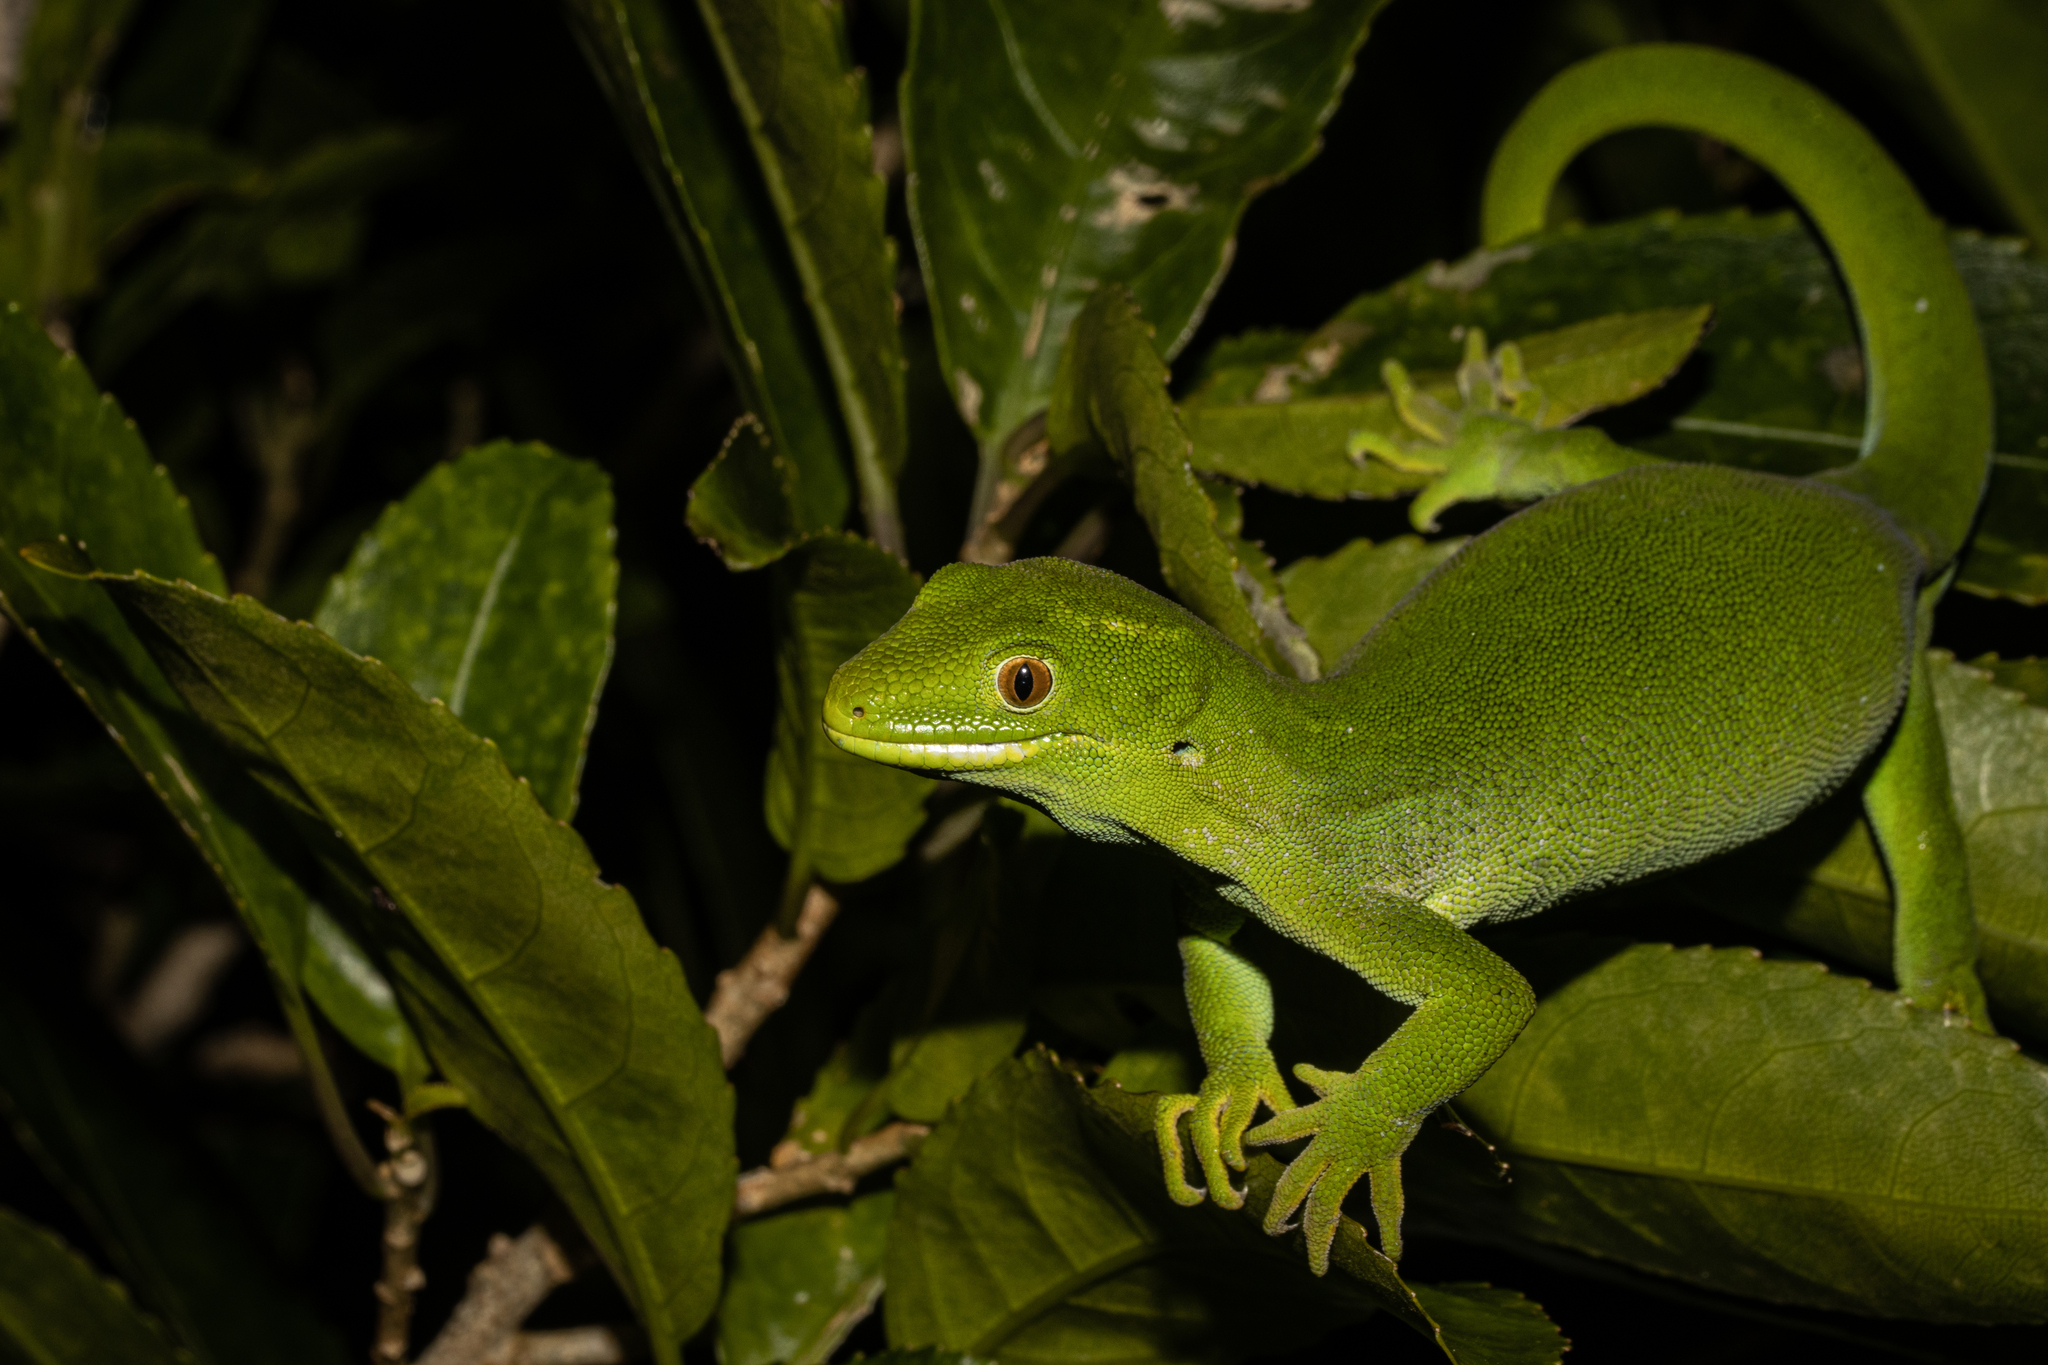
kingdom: Animalia
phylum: Chordata
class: Squamata
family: Diplodactylidae
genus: Naultinus
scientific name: Naultinus punctatus
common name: Wellington green gecko
